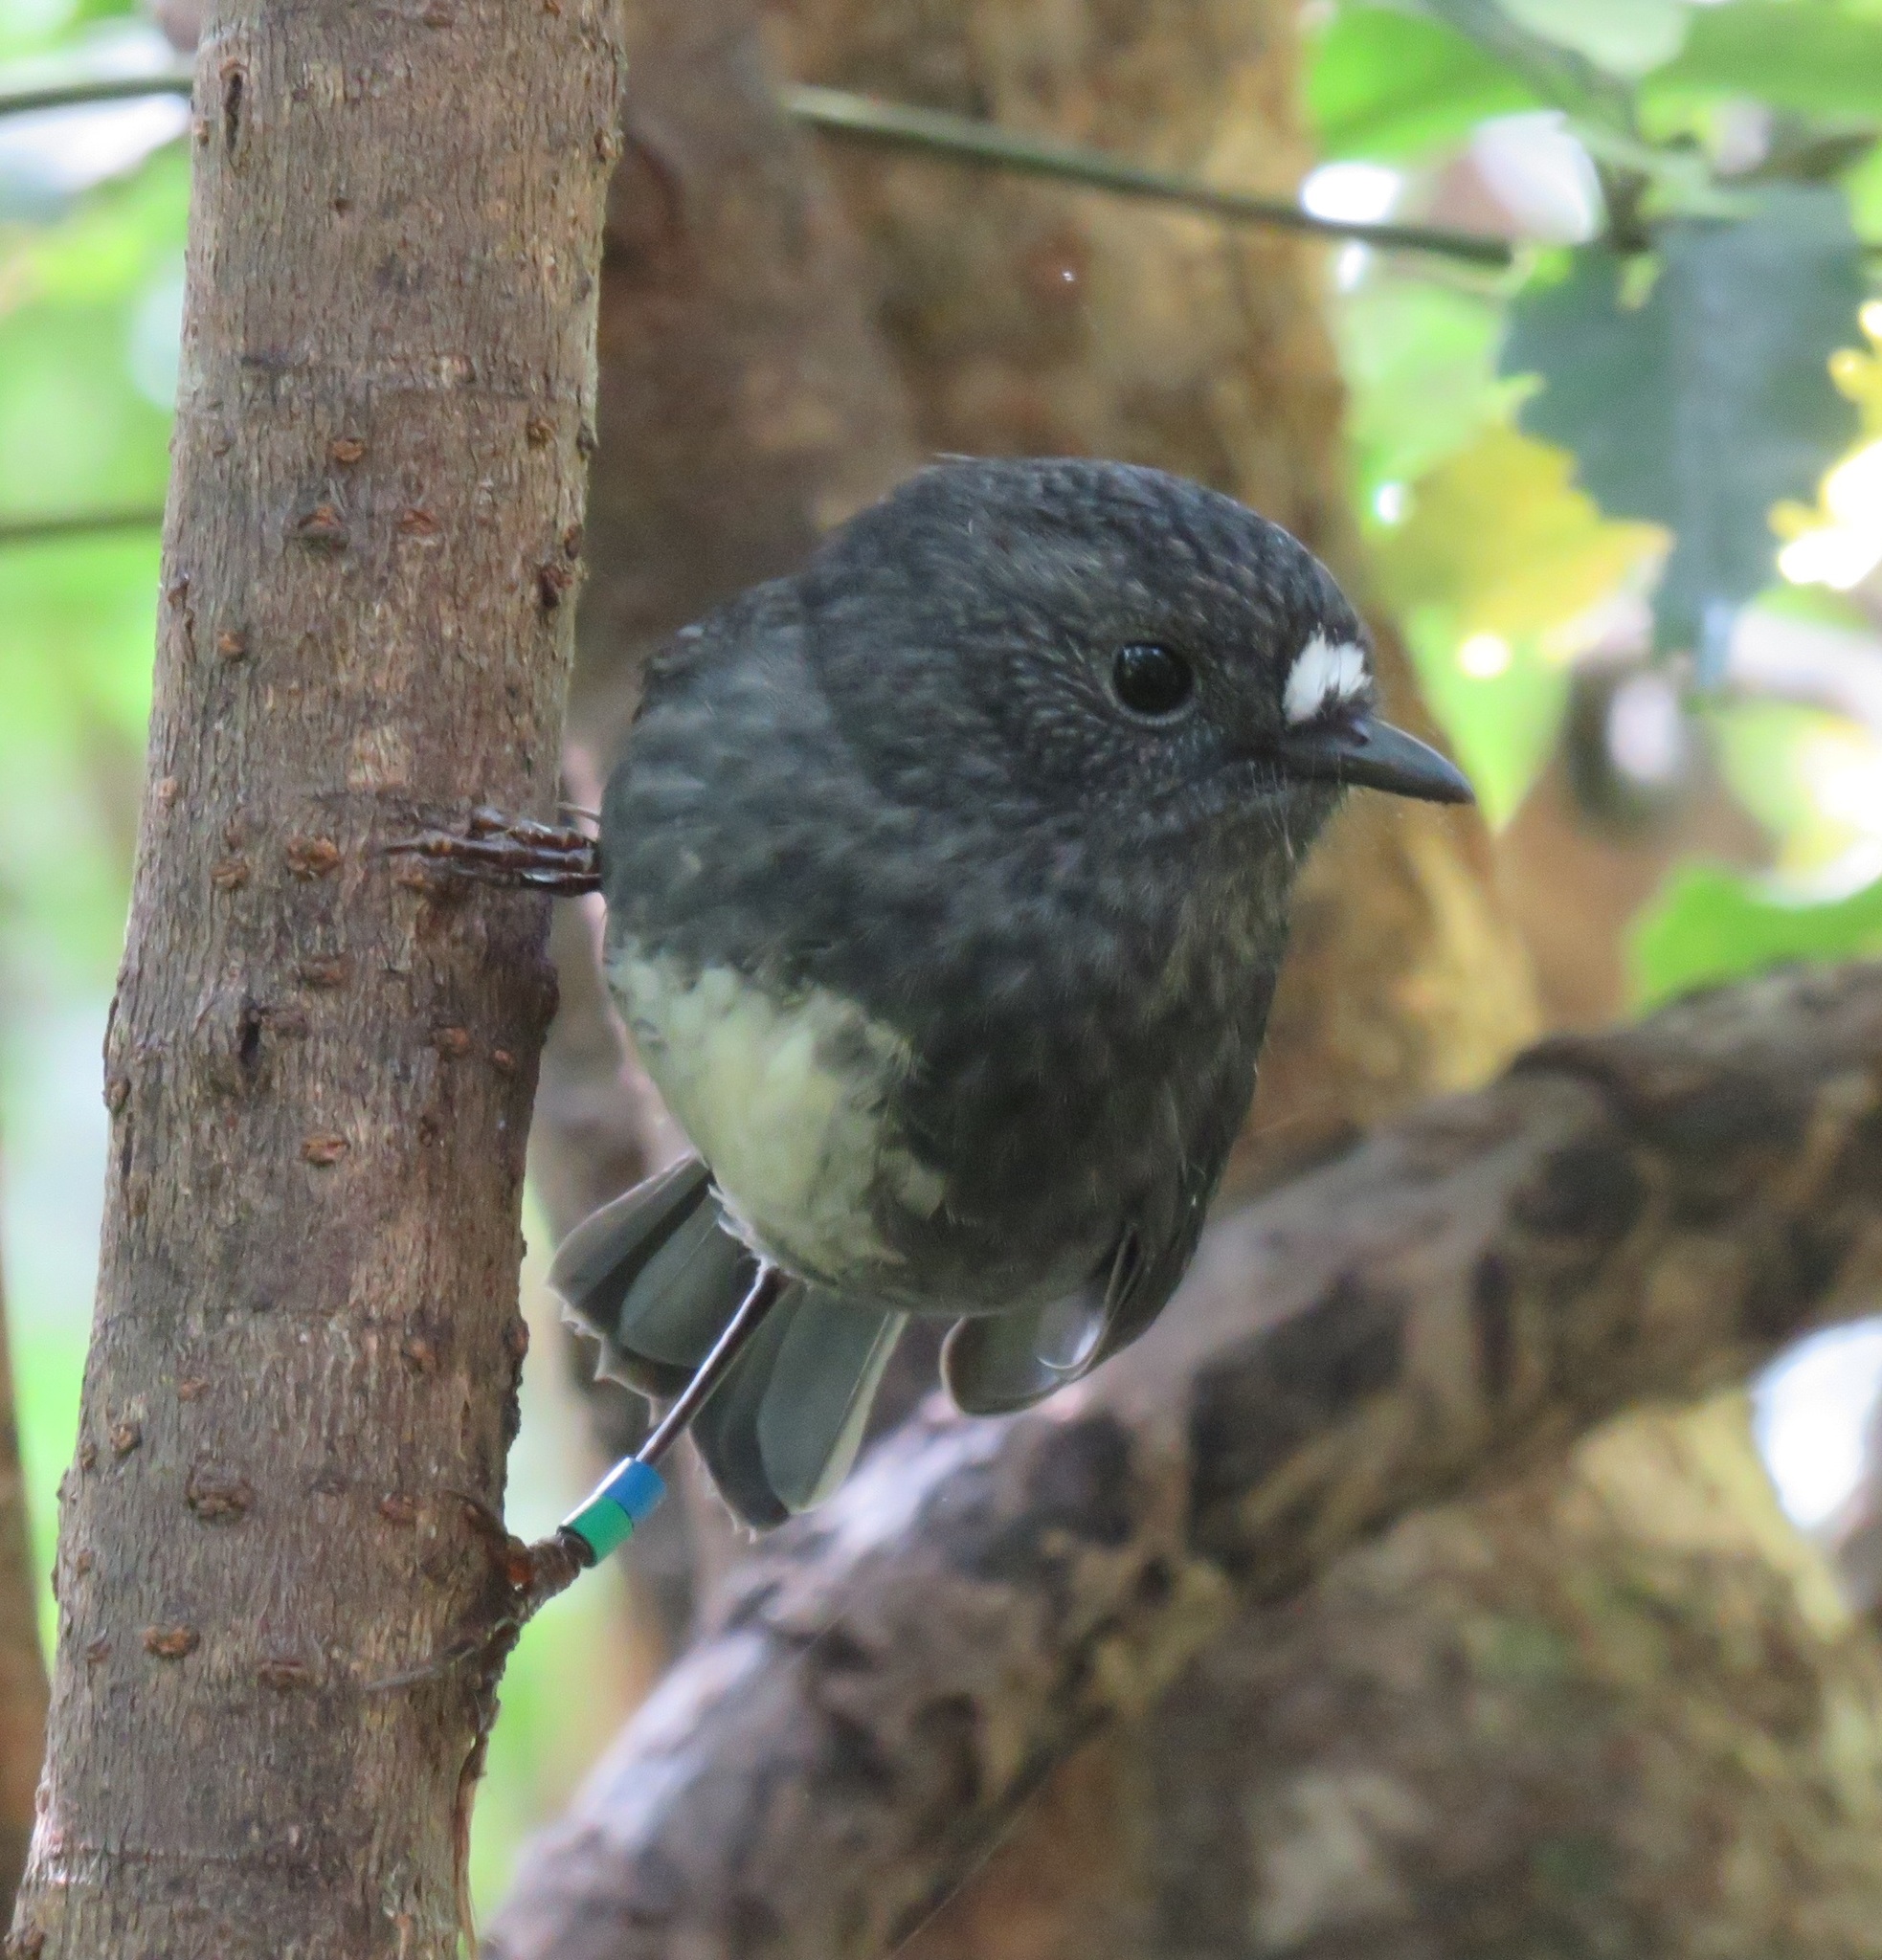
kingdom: Animalia
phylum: Chordata
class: Aves
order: Passeriformes
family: Petroicidae
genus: Petroica
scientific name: Petroica australis
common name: New zealand robin
